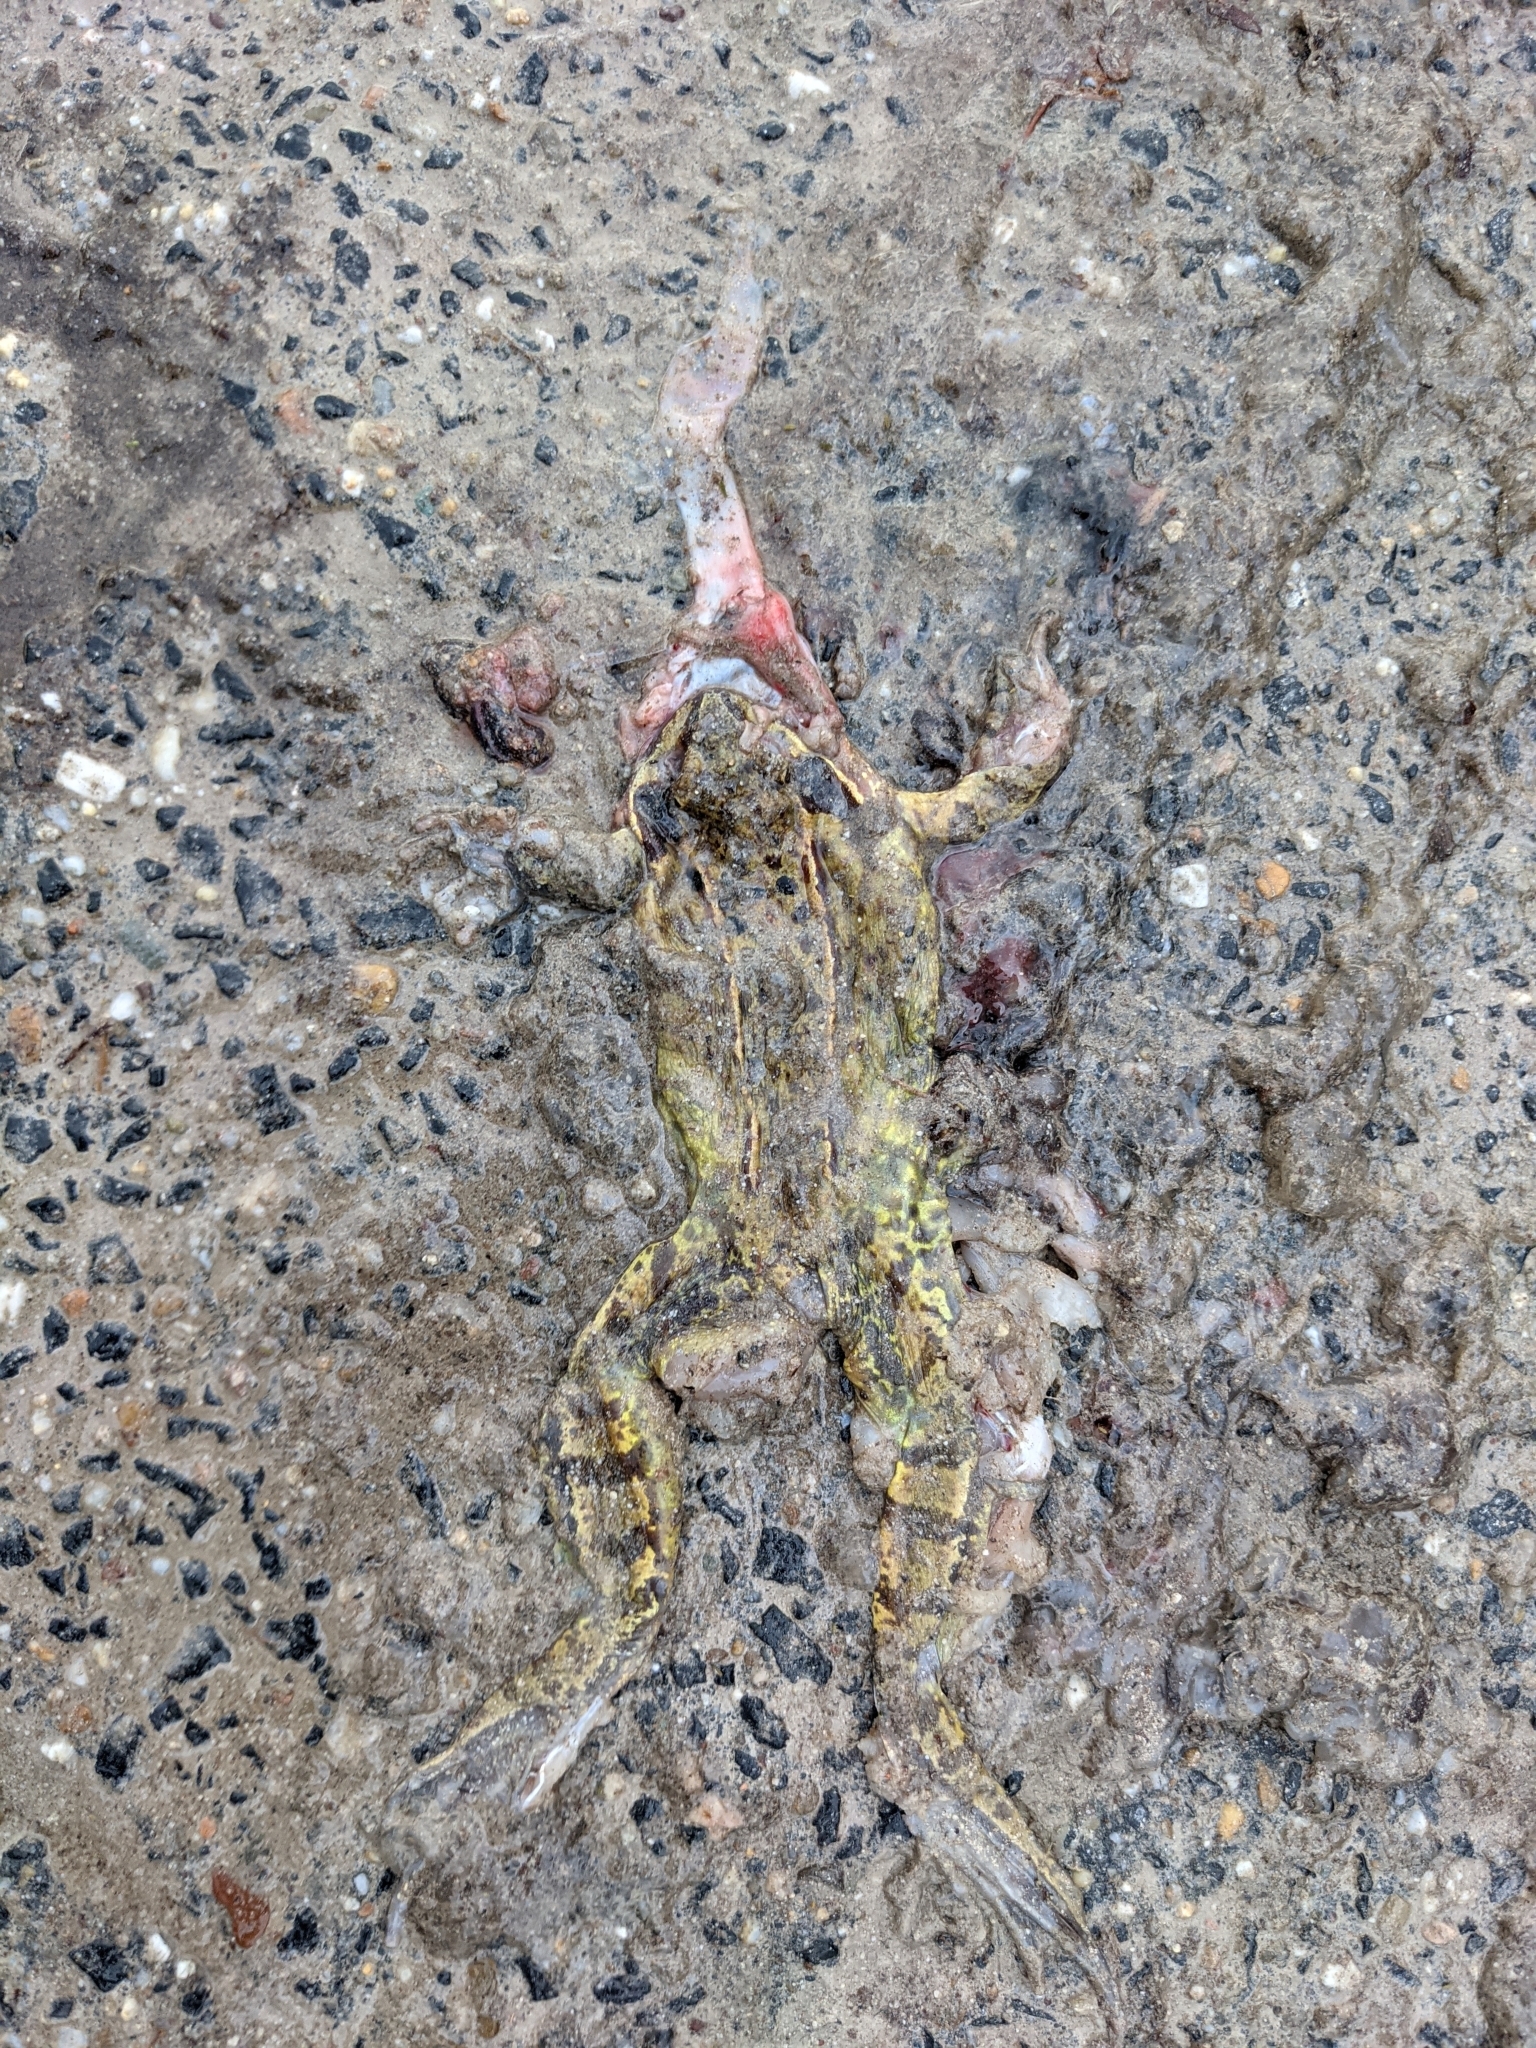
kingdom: Animalia
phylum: Chordata
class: Amphibia
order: Anura
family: Ranidae
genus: Rana
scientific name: Rana temporaria
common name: Common frog
